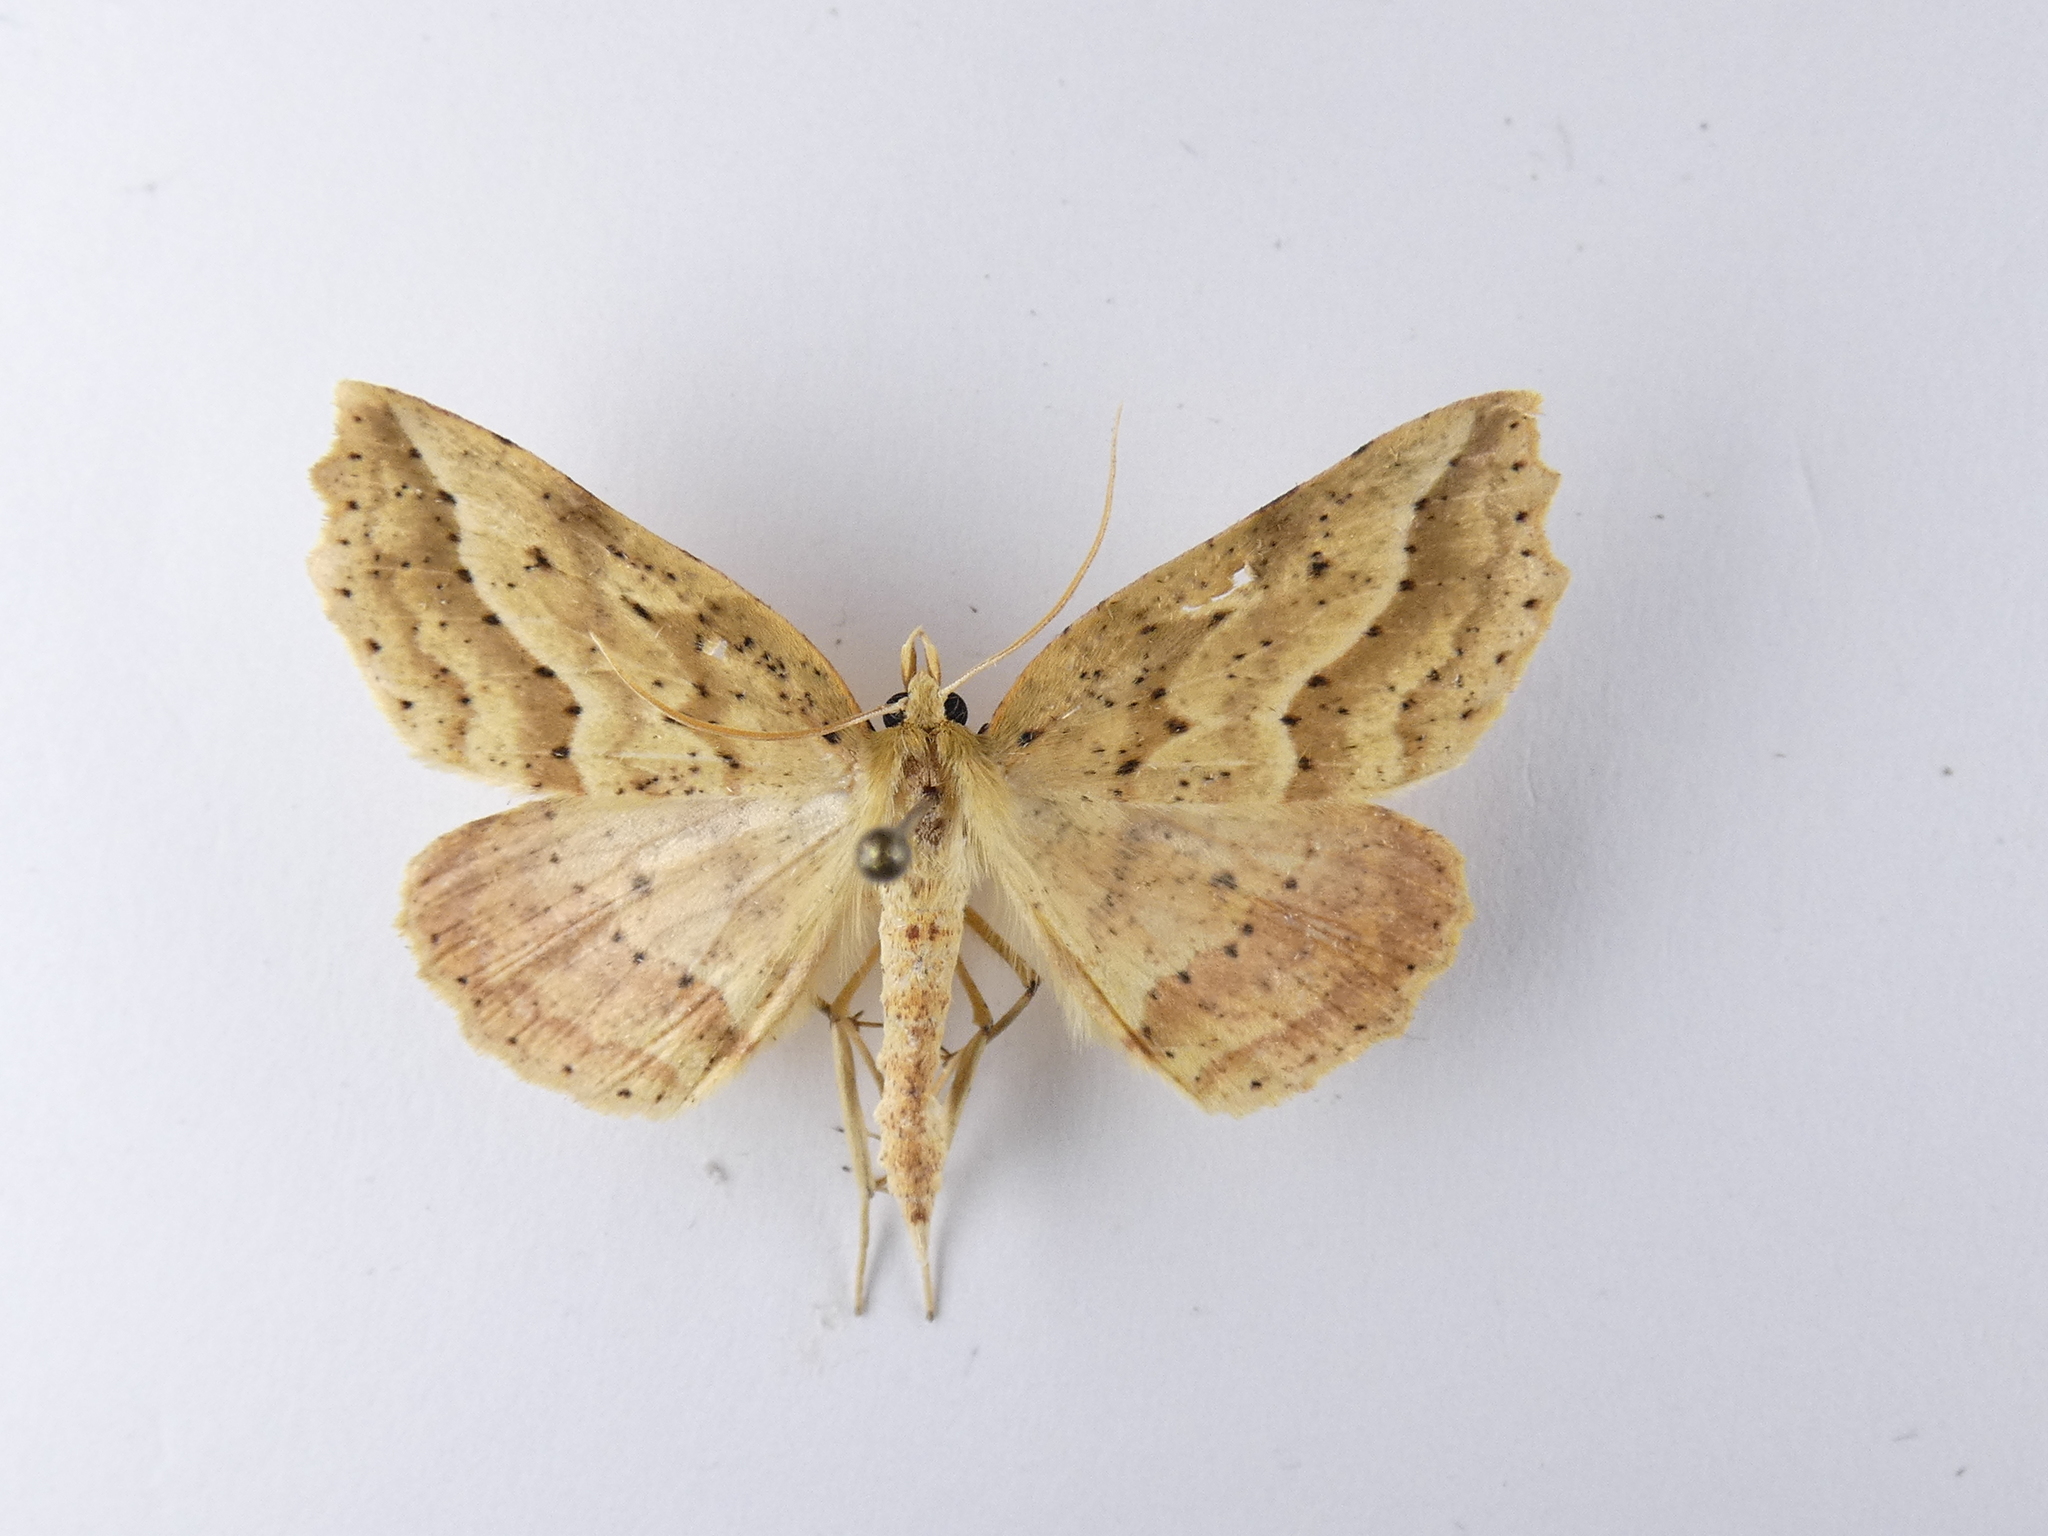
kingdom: Animalia
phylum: Arthropoda
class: Insecta
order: Lepidoptera
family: Geometridae
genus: Ischalis
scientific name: Ischalis variabilis
